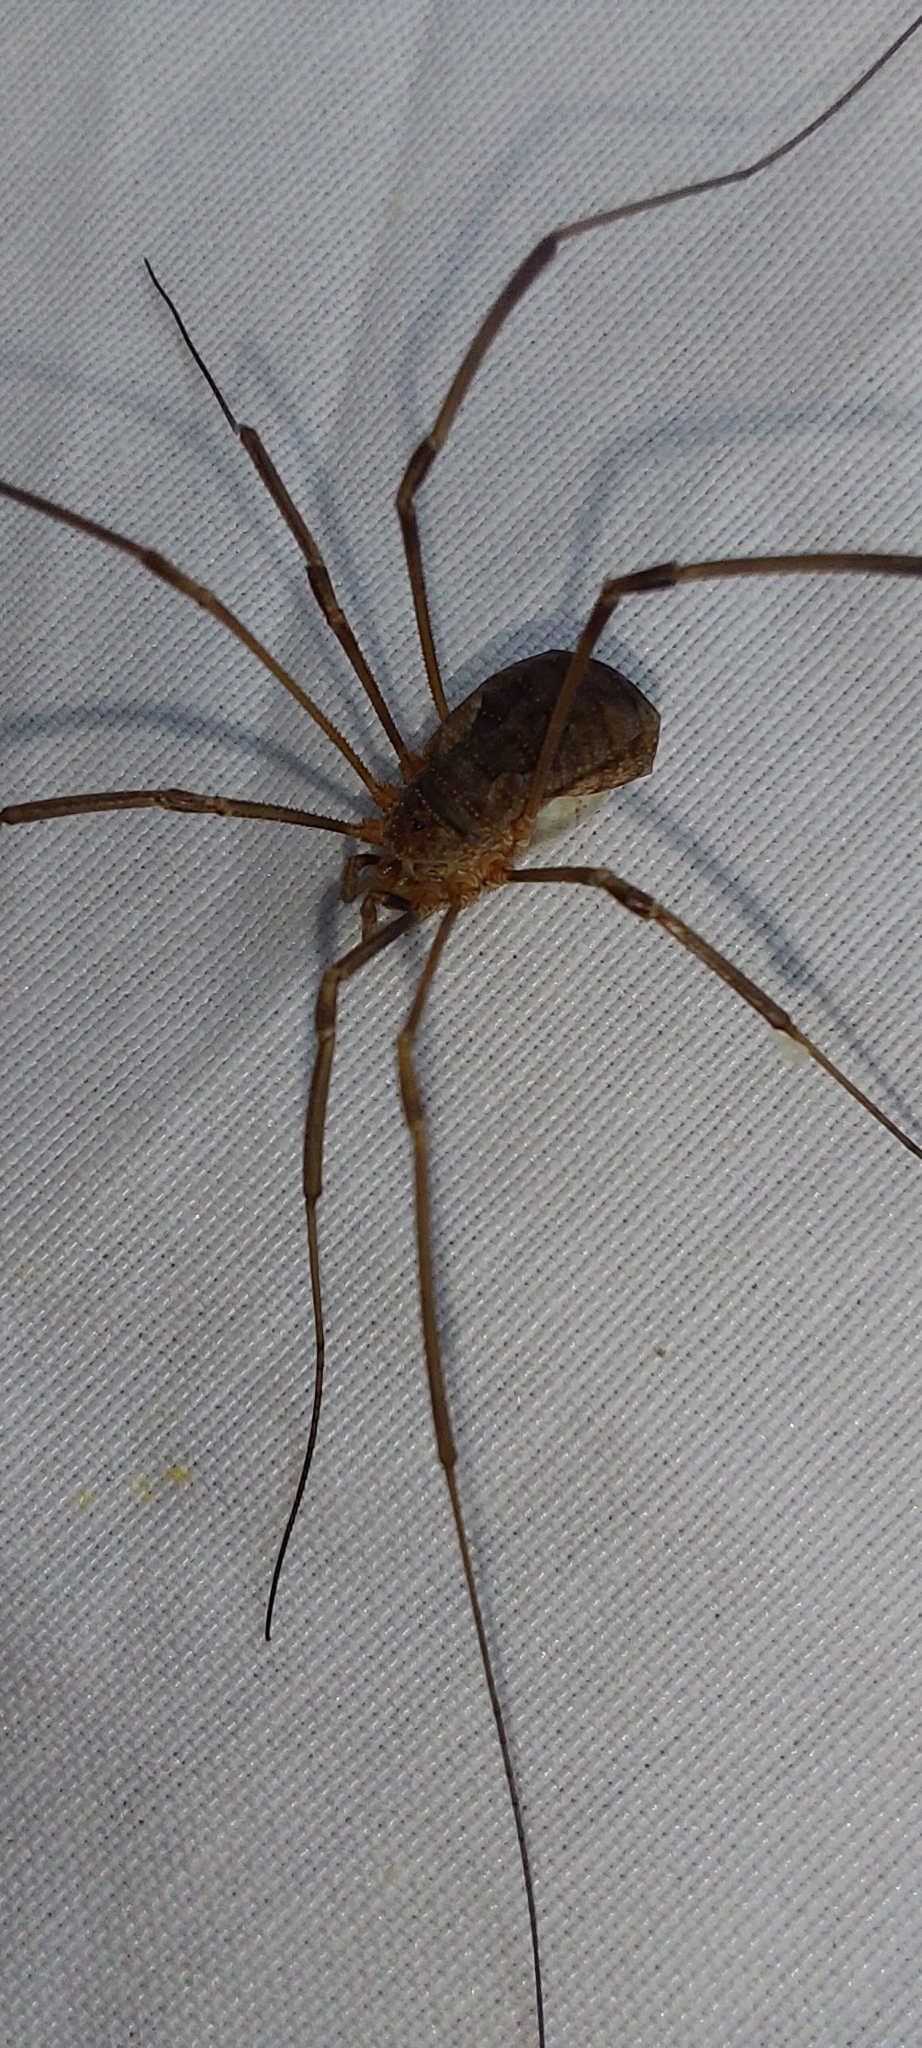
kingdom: Animalia
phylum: Arthropoda
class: Arachnida
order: Opiliones
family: Phalangiidae
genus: Phalangium
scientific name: Phalangium opilio
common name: Daddy longleg
